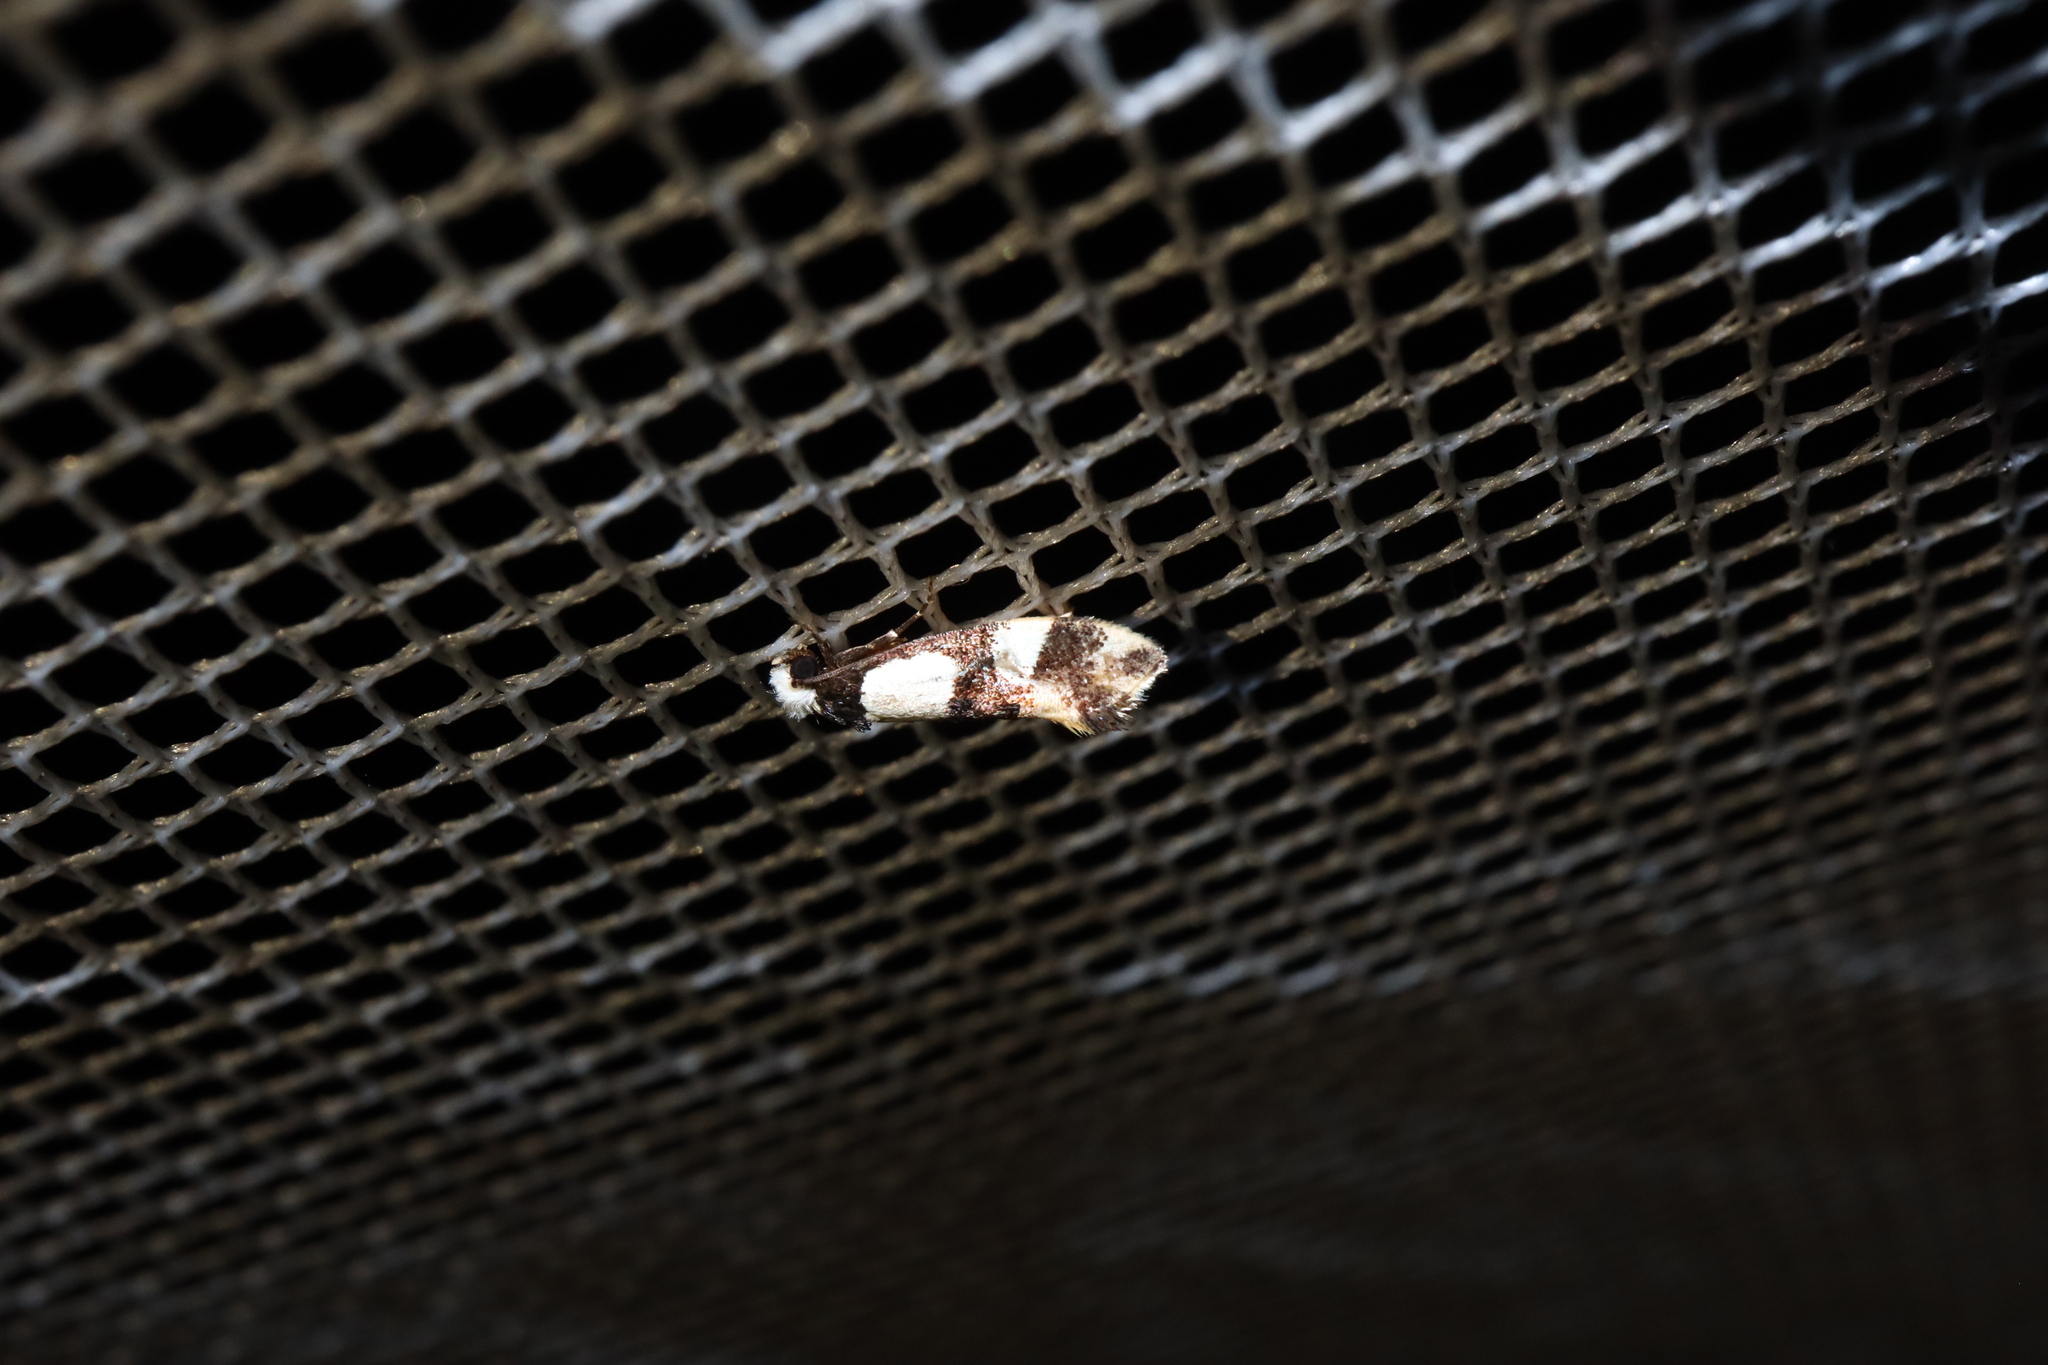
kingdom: Animalia
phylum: Arthropoda
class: Insecta
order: Lepidoptera
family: Tineidae
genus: Monopis
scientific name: Monopis icterogastra
